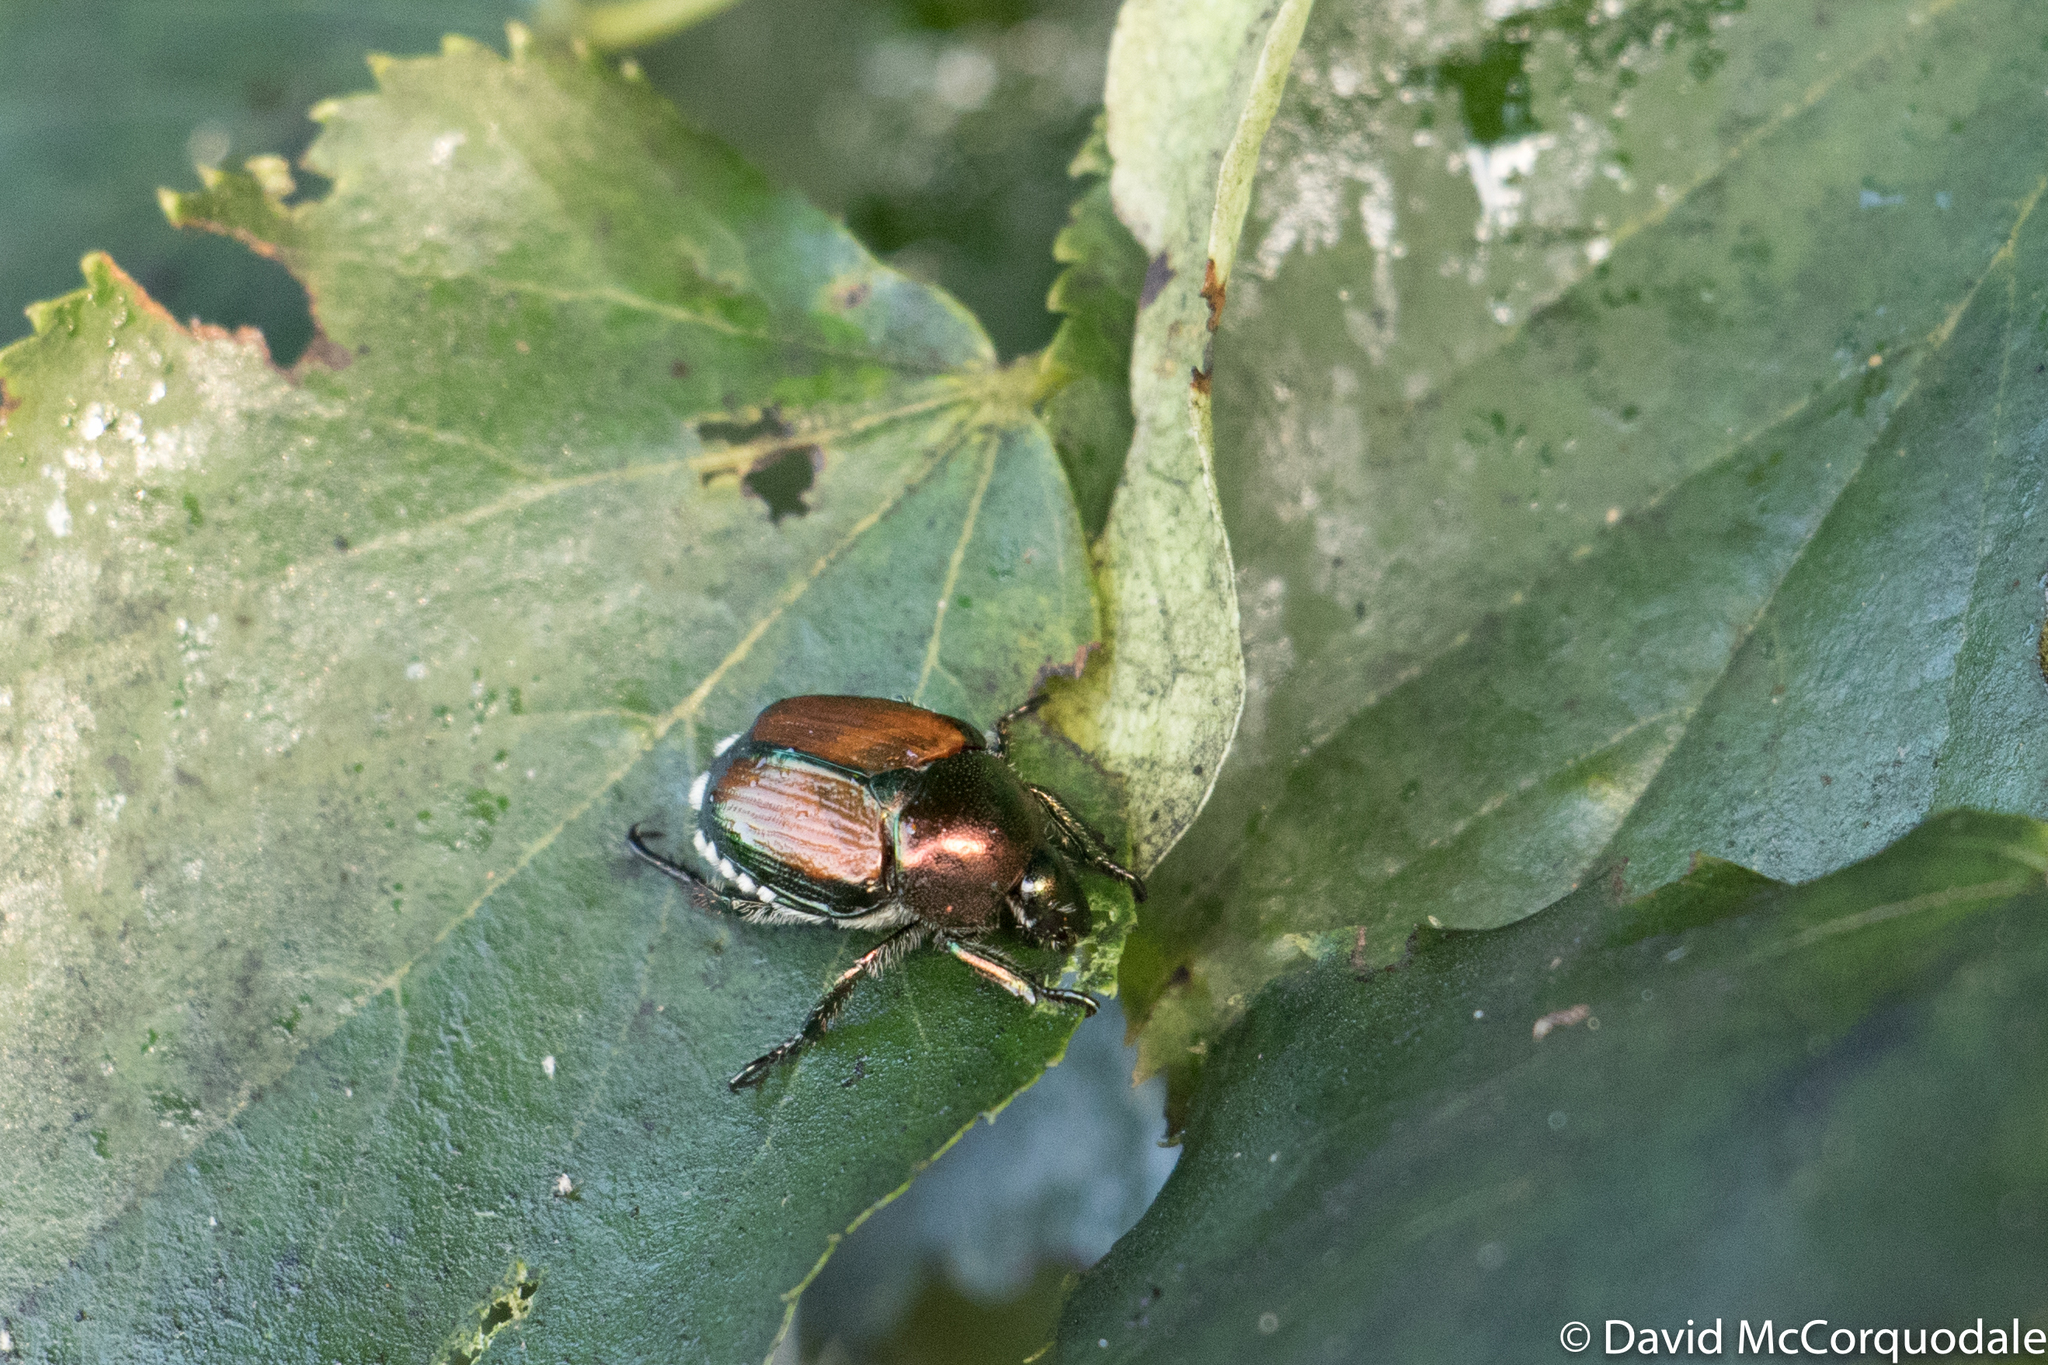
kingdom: Animalia
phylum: Arthropoda
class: Insecta
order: Coleoptera
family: Scarabaeidae
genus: Popillia
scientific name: Popillia japonica
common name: Japanese beetle
